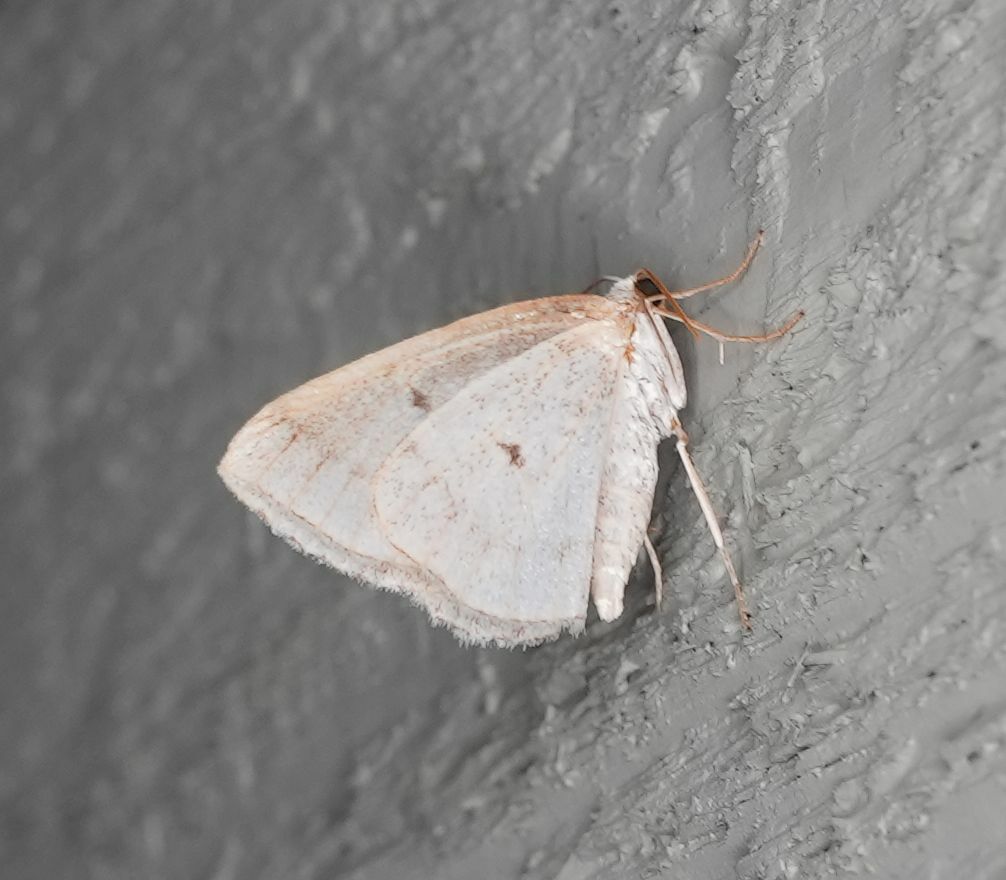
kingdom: Animalia
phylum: Arthropoda
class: Insecta
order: Lepidoptera
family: Geometridae
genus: Lomographa
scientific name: Lomographa glomeraria
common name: Gray spring moth
